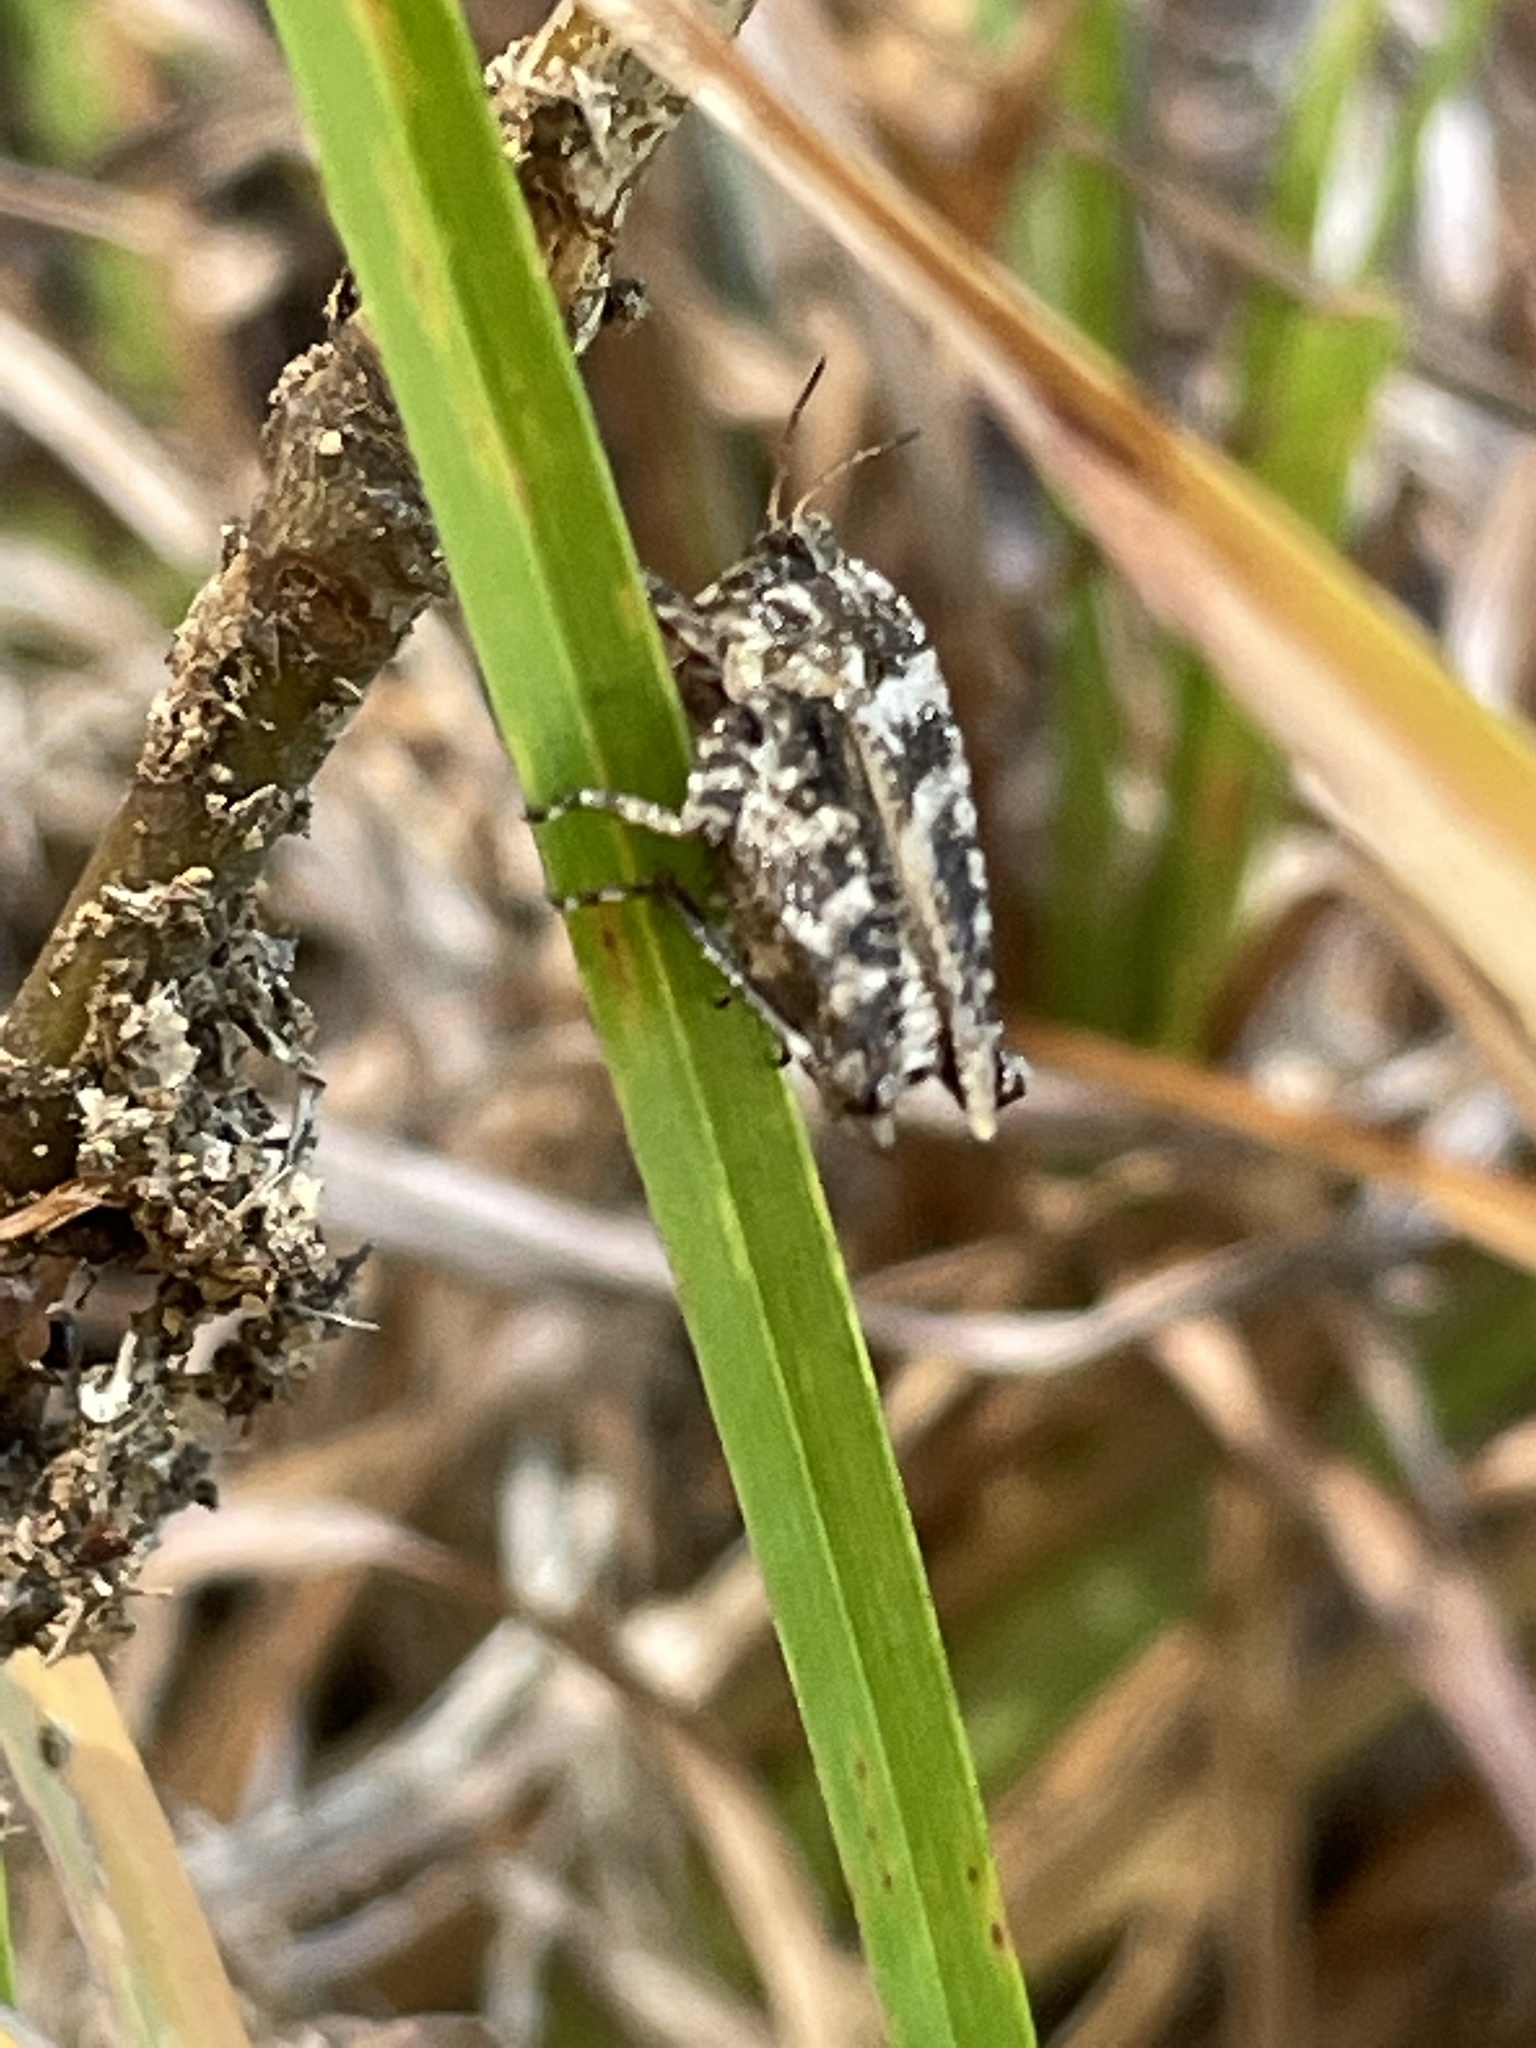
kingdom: Animalia
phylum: Arthropoda
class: Insecta
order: Orthoptera
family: Tetrigidae
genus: Nomotettix
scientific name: Nomotettix cristatus
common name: Crested grouse locust
